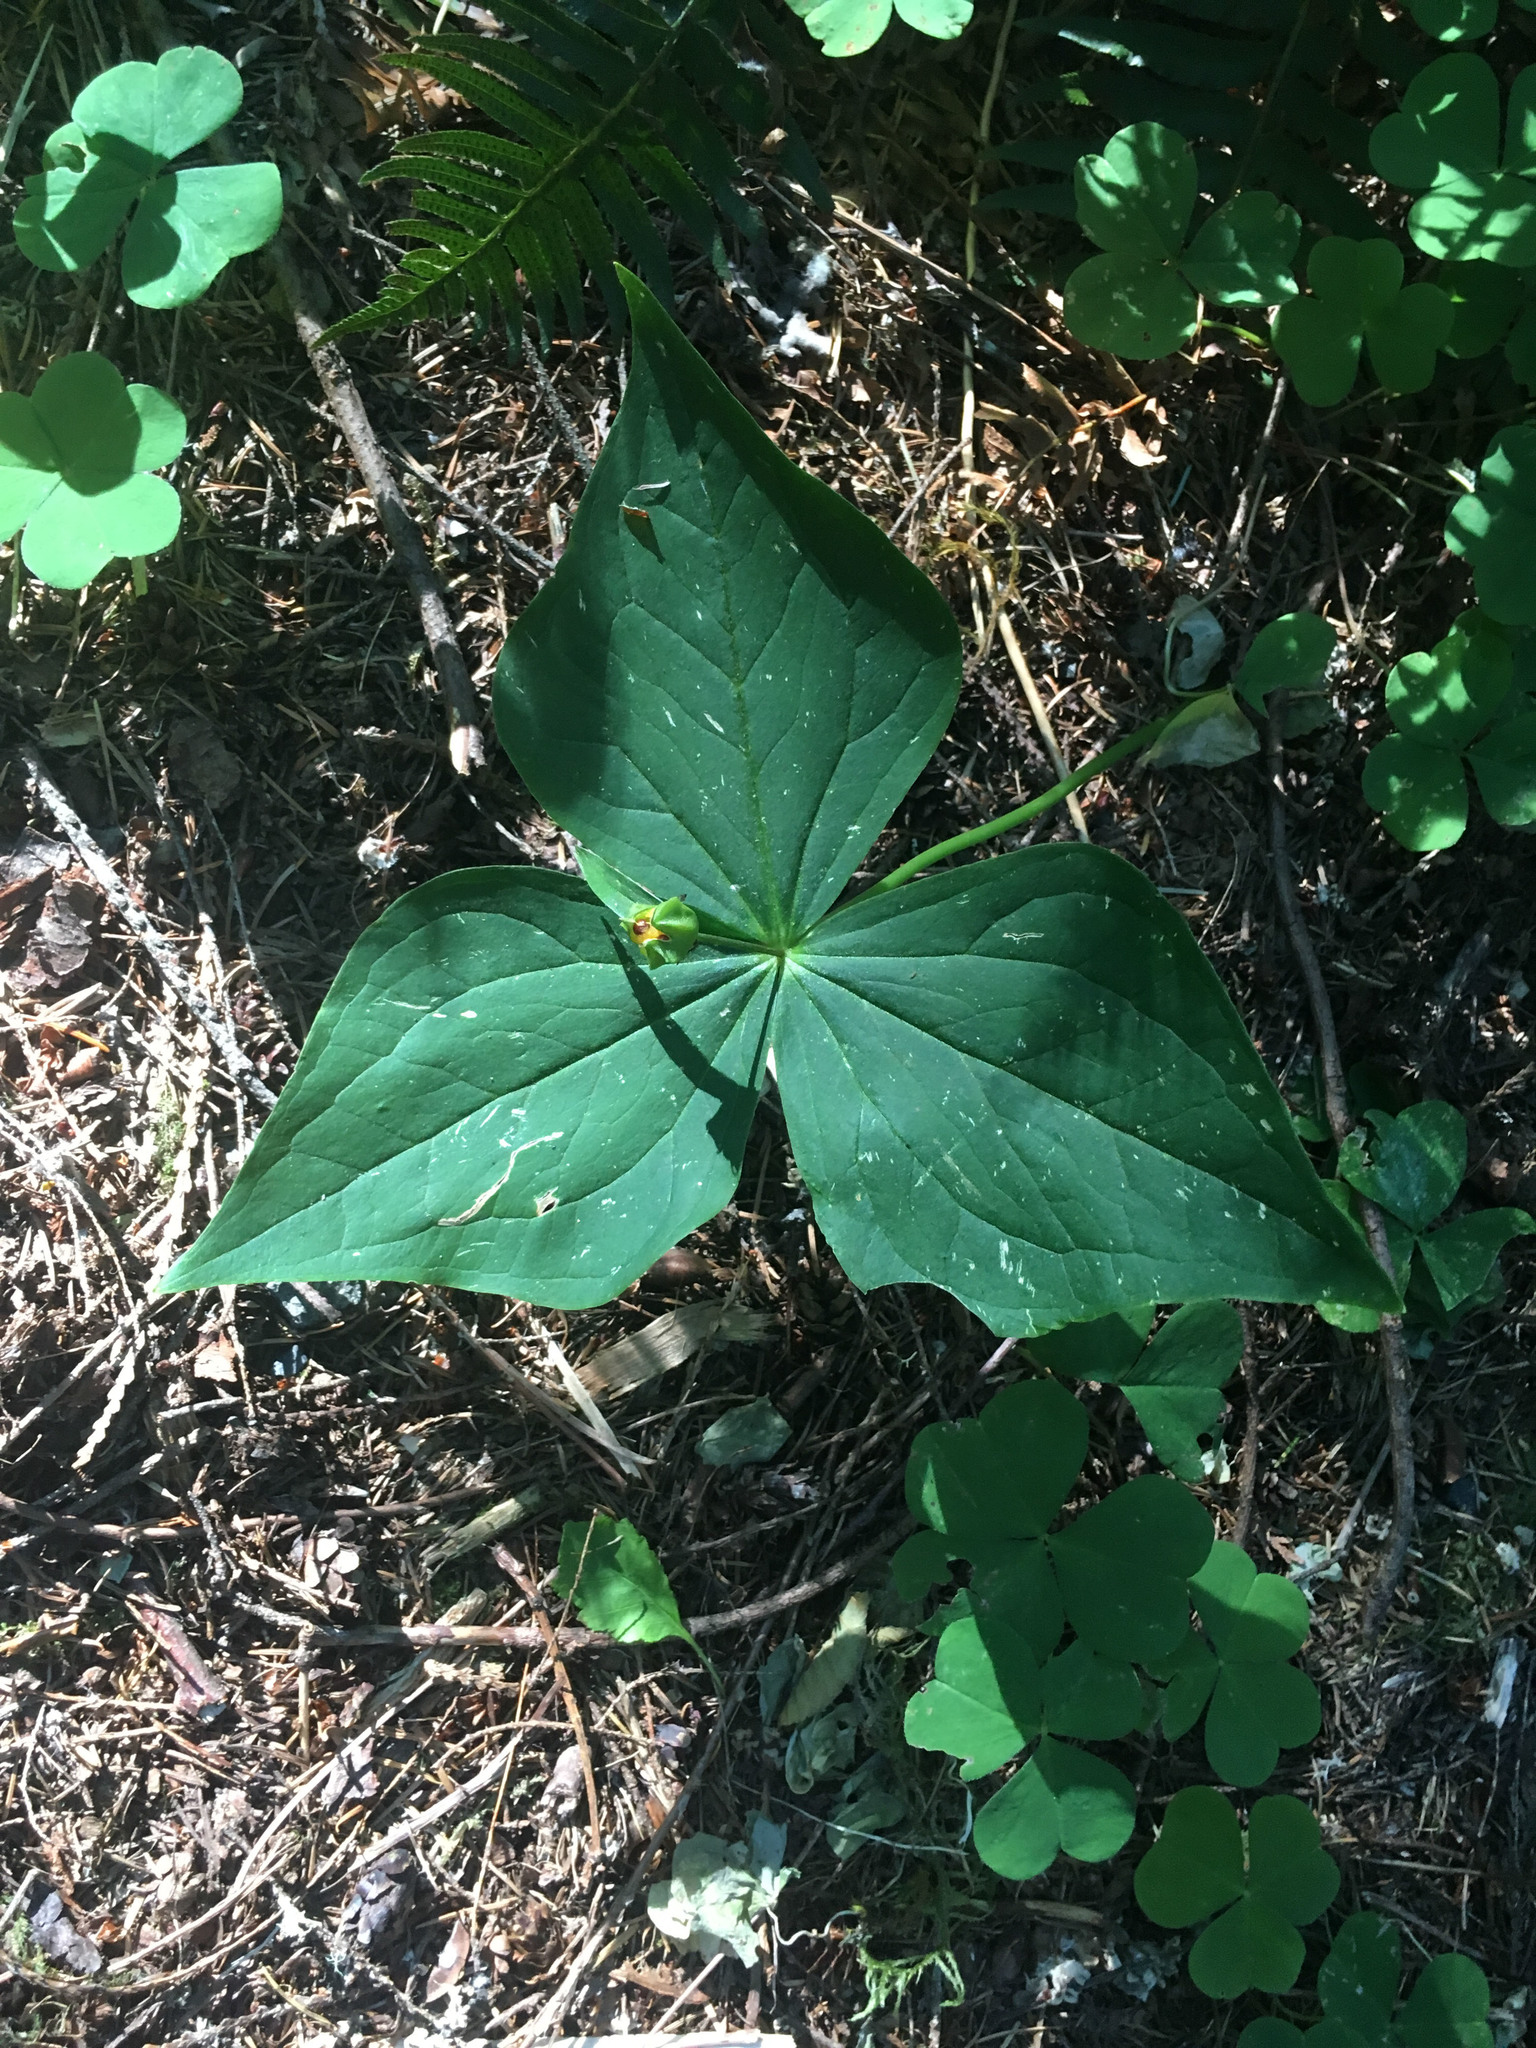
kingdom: Plantae
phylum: Tracheophyta
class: Liliopsida
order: Liliales
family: Melanthiaceae
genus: Trillium
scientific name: Trillium ovatum
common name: Pacific trillium
